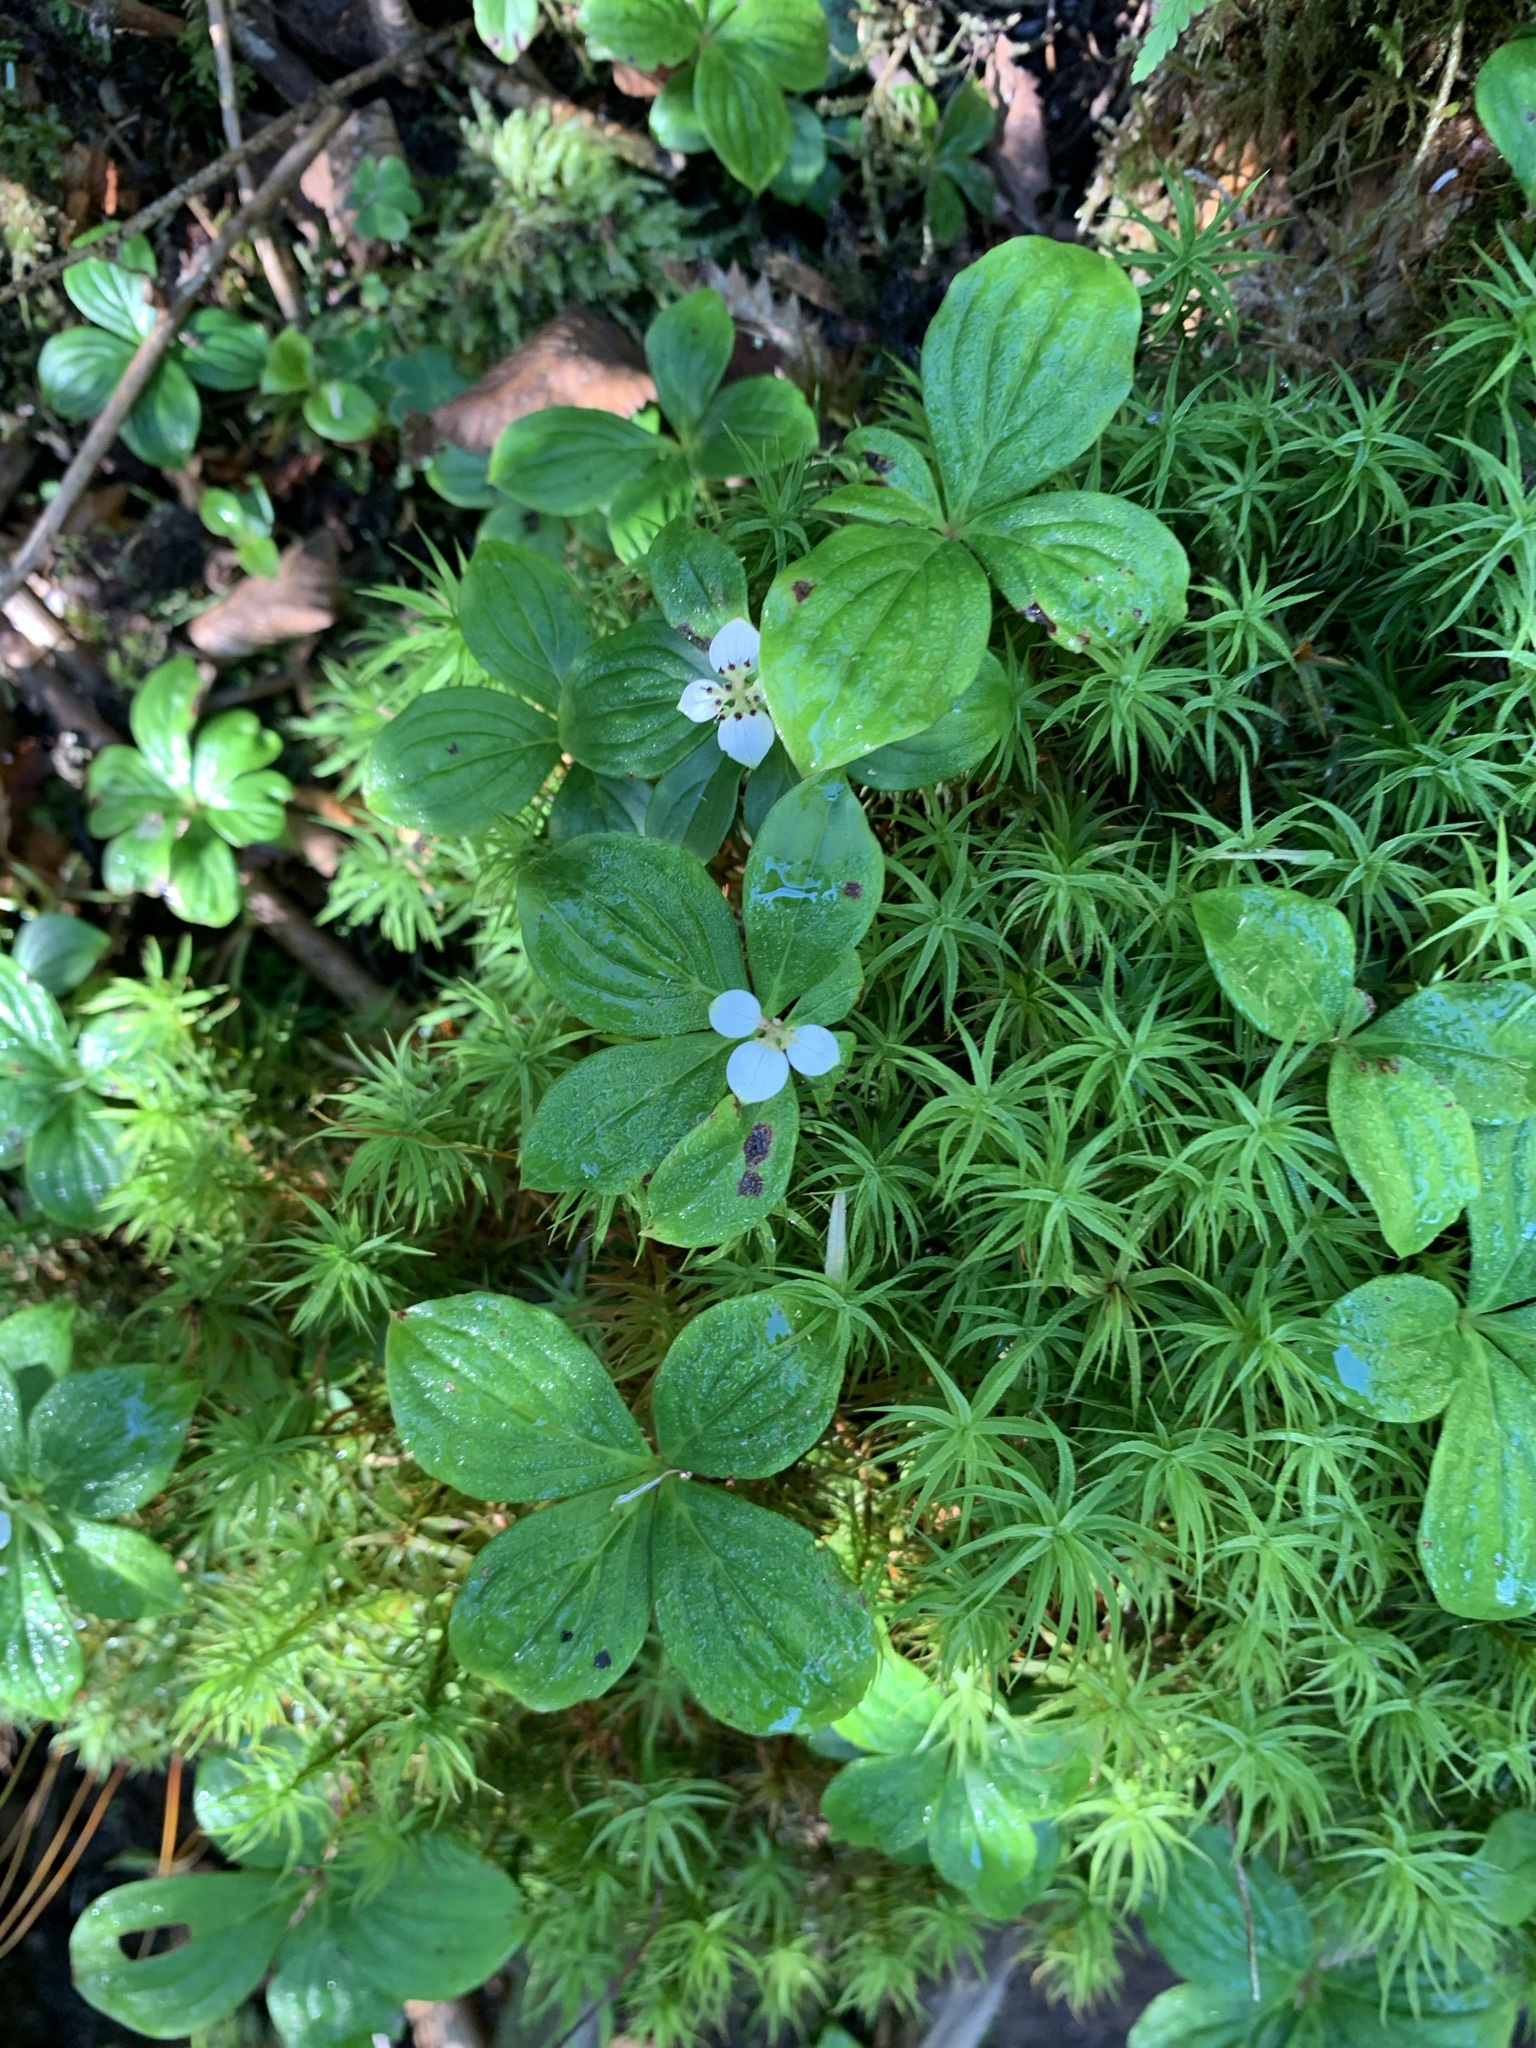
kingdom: Plantae
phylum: Tracheophyta
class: Magnoliopsida
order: Cornales
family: Cornaceae
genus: Cornus
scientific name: Cornus canadensis
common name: Creeping dogwood
